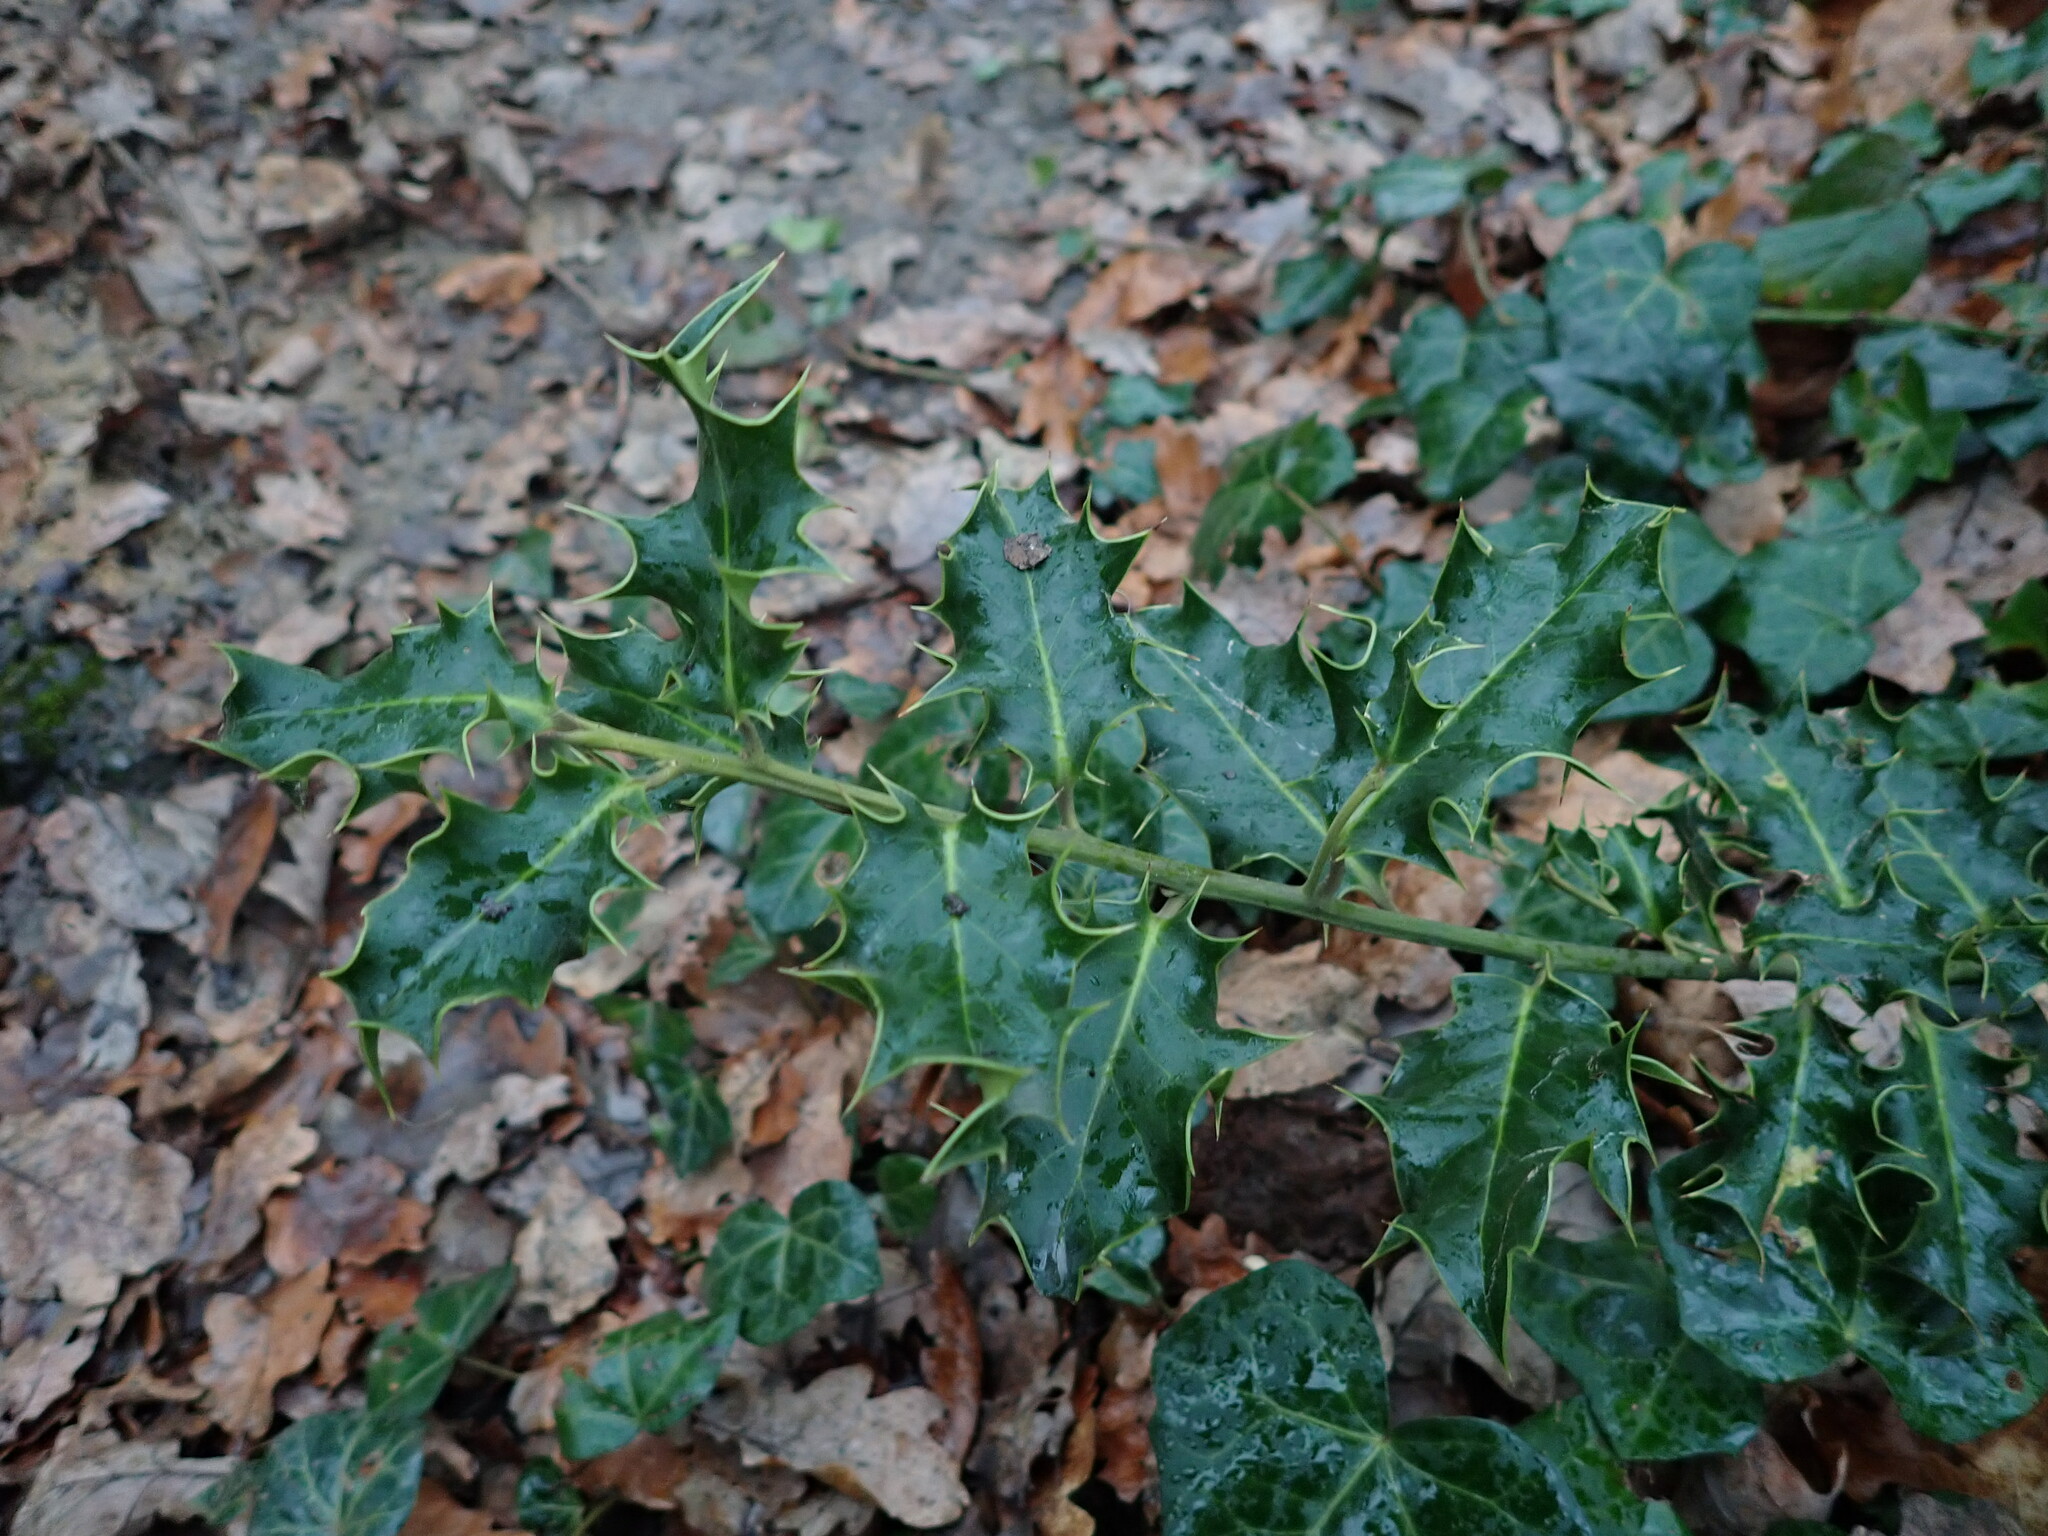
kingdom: Plantae
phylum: Tracheophyta
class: Magnoliopsida
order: Aquifoliales
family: Aquifoliaceae
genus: Ilex
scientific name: Ilex aquifolium
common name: English holly
